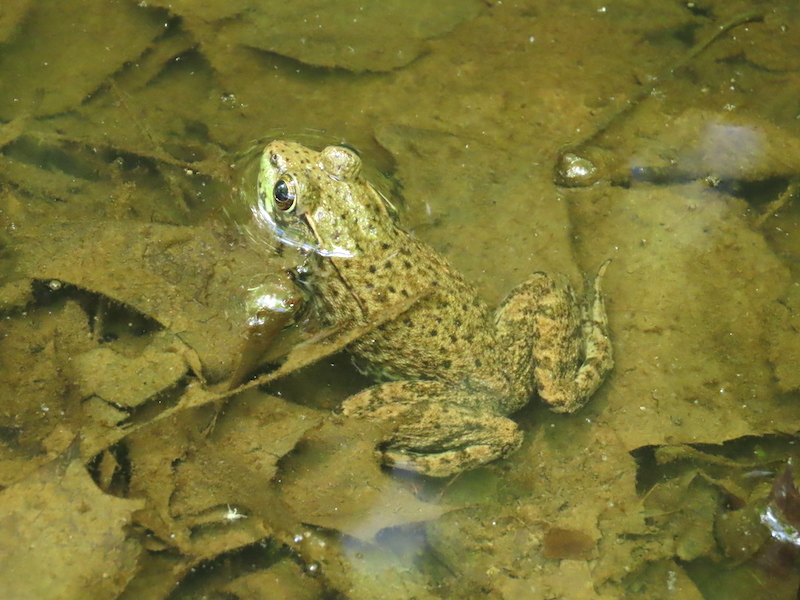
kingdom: Animalia
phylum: Chordata
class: Amphibia
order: Anura
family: Ranidae
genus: Lithobates
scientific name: Lithobates clamitans
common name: Green frog
